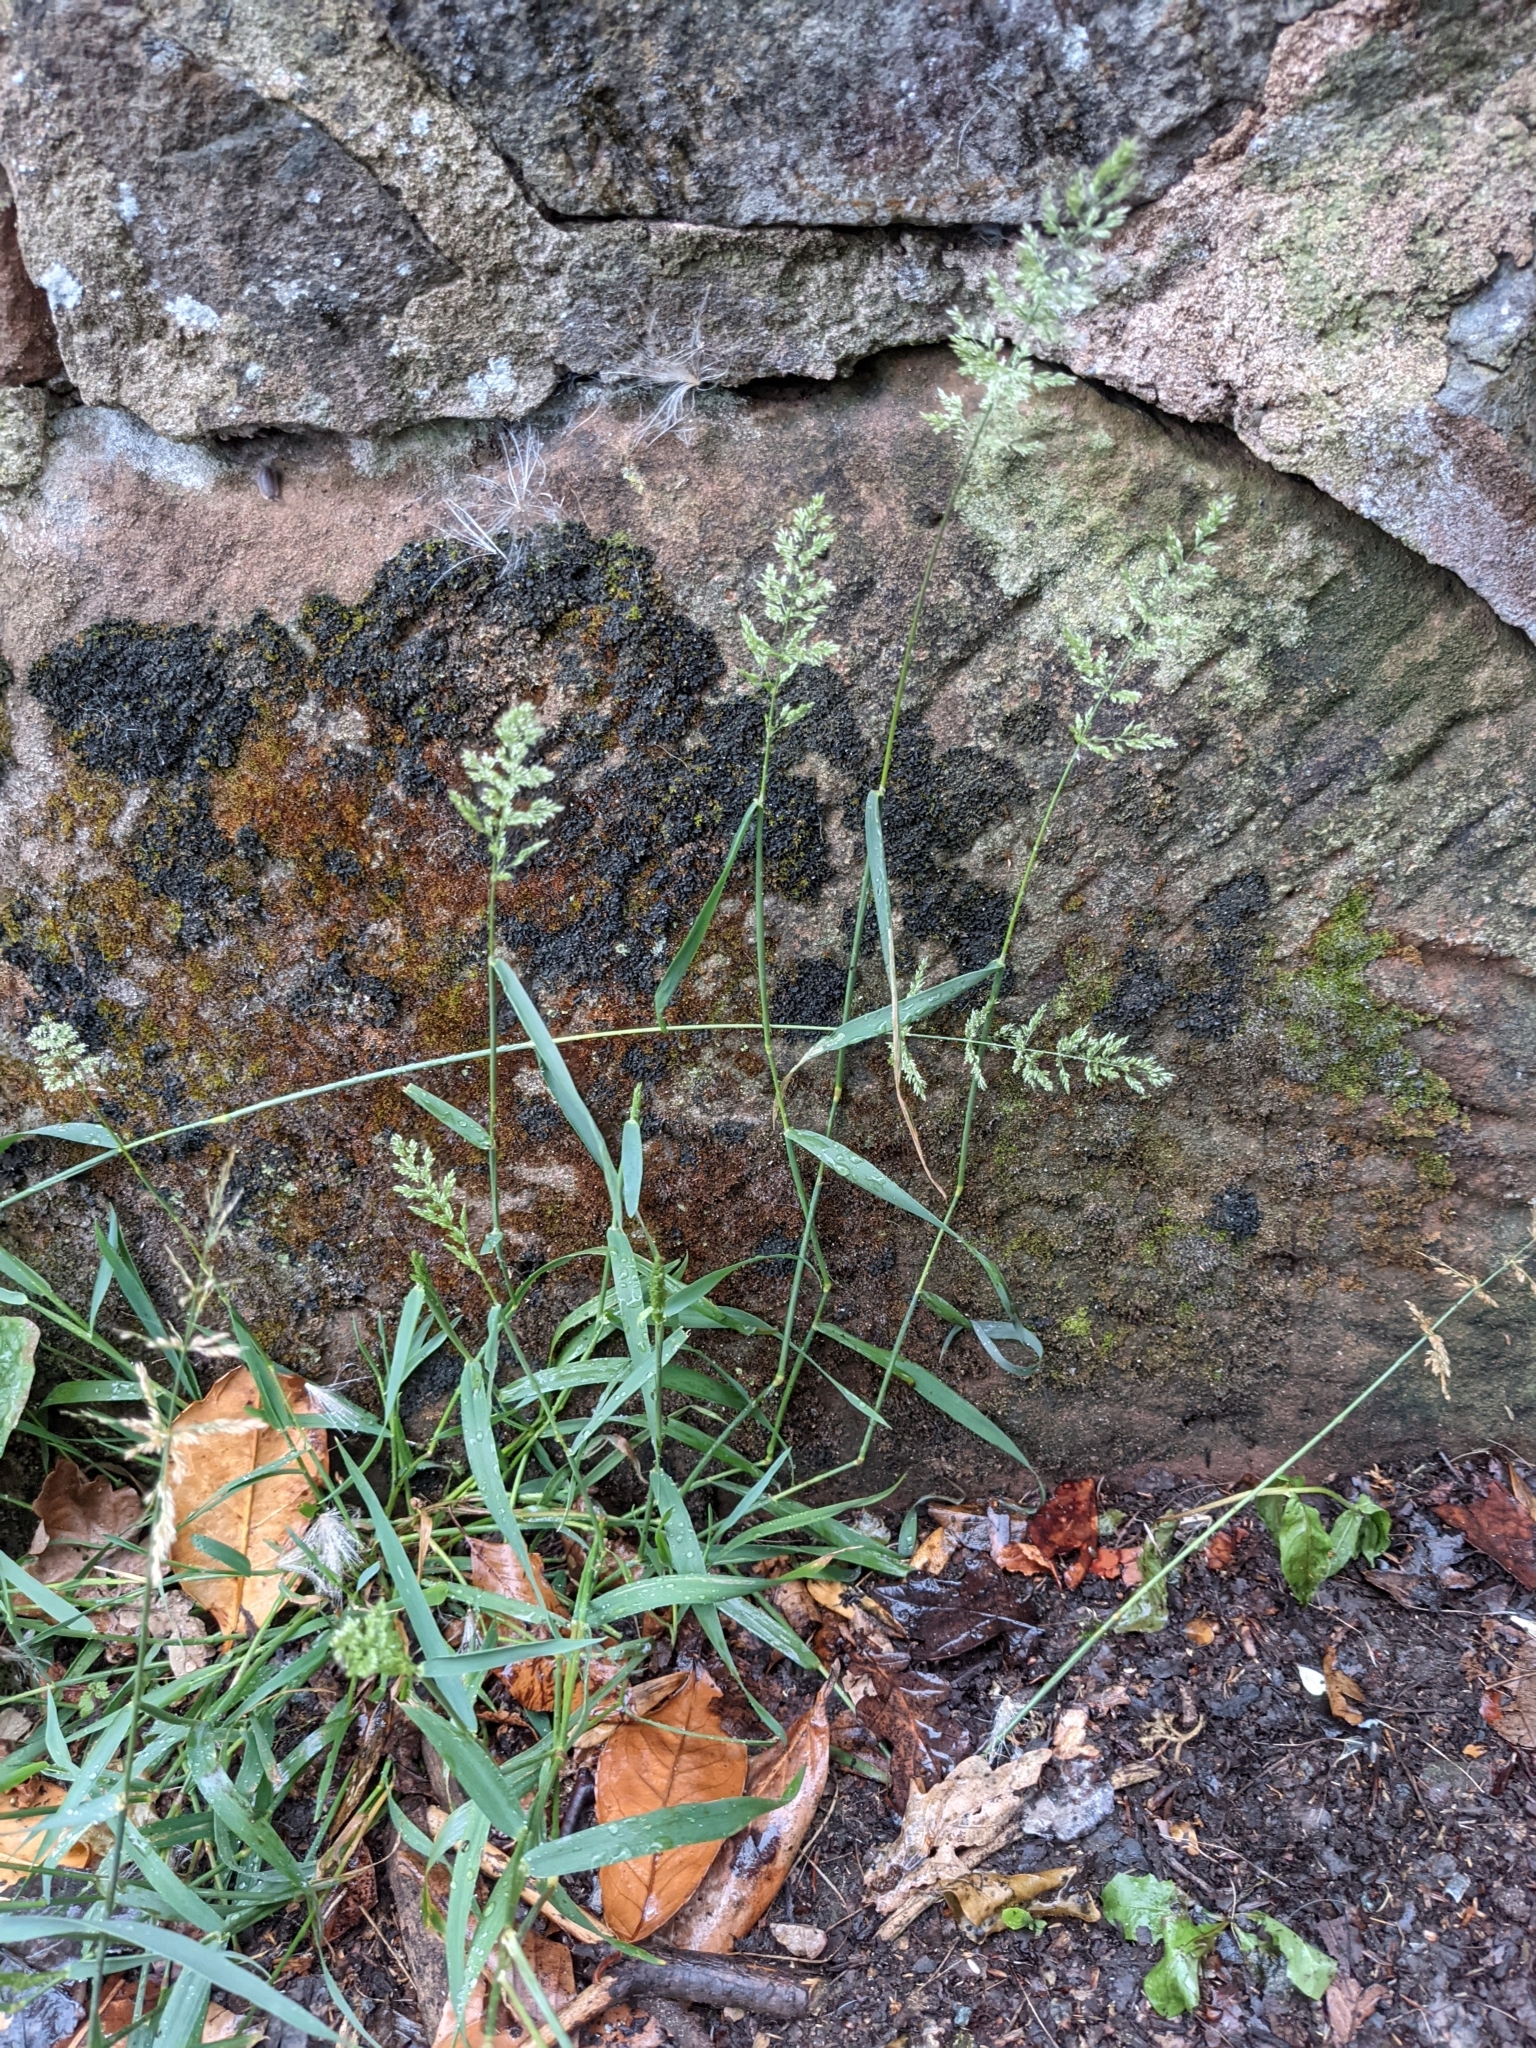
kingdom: Plantae
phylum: Tracheophyta
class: Liliopsida
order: Poales
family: Poaceae
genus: Polypogon
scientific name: Polypogon viridis
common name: Water bent
